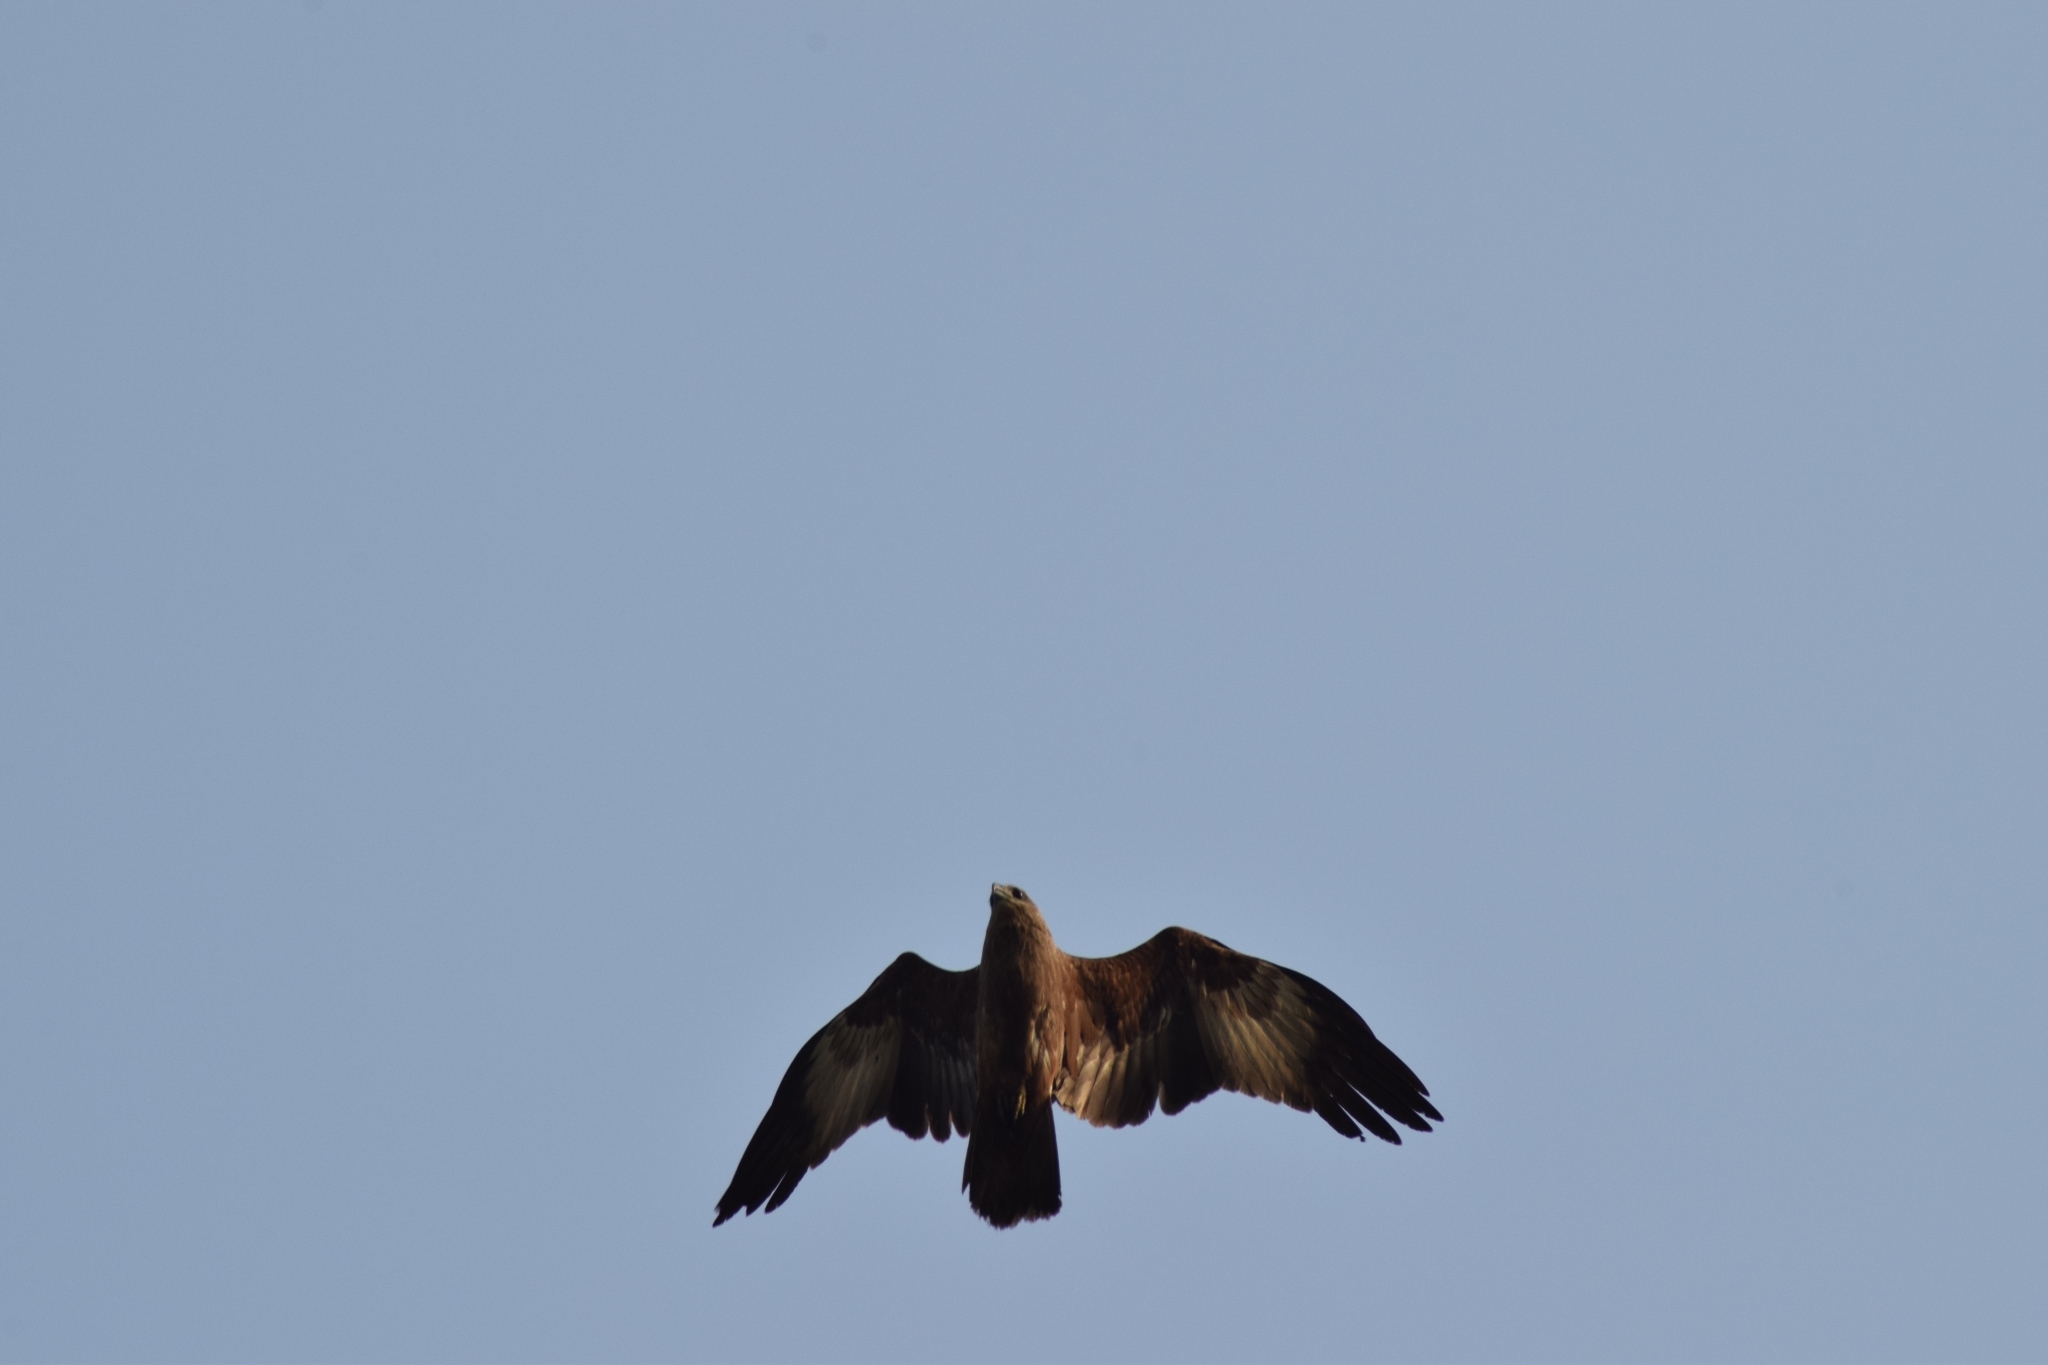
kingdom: Animalia
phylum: Chordata
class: Aves
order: Accipitriformes
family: Accipitridae
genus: Haliastur
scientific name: Haliastur indus
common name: Brahminy kite
